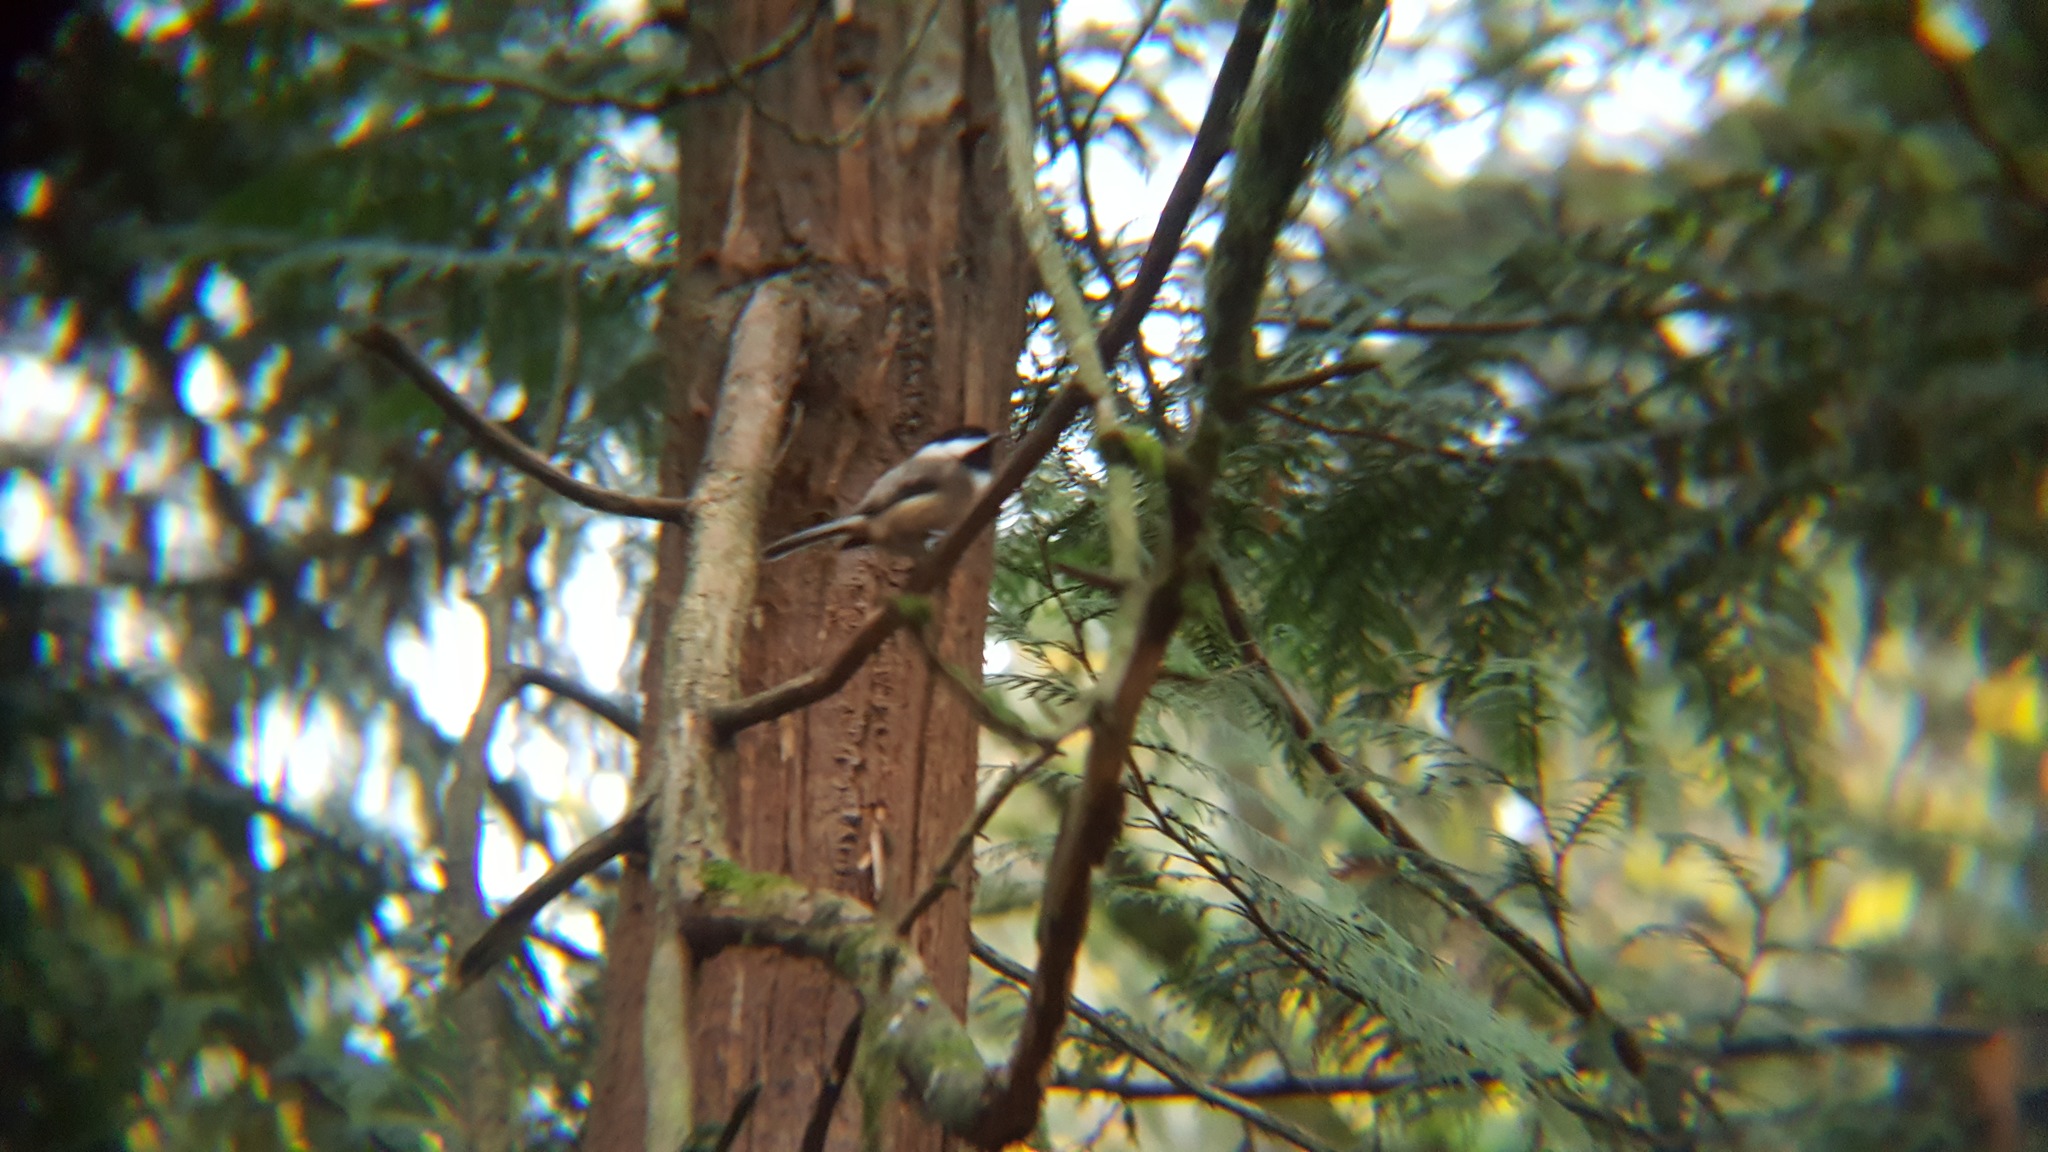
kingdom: Animalia
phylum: Chordata
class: Aves
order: Passeriformes
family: Paridae
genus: Poecile
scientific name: Poecile atricapillus
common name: Black-capped chickadee
